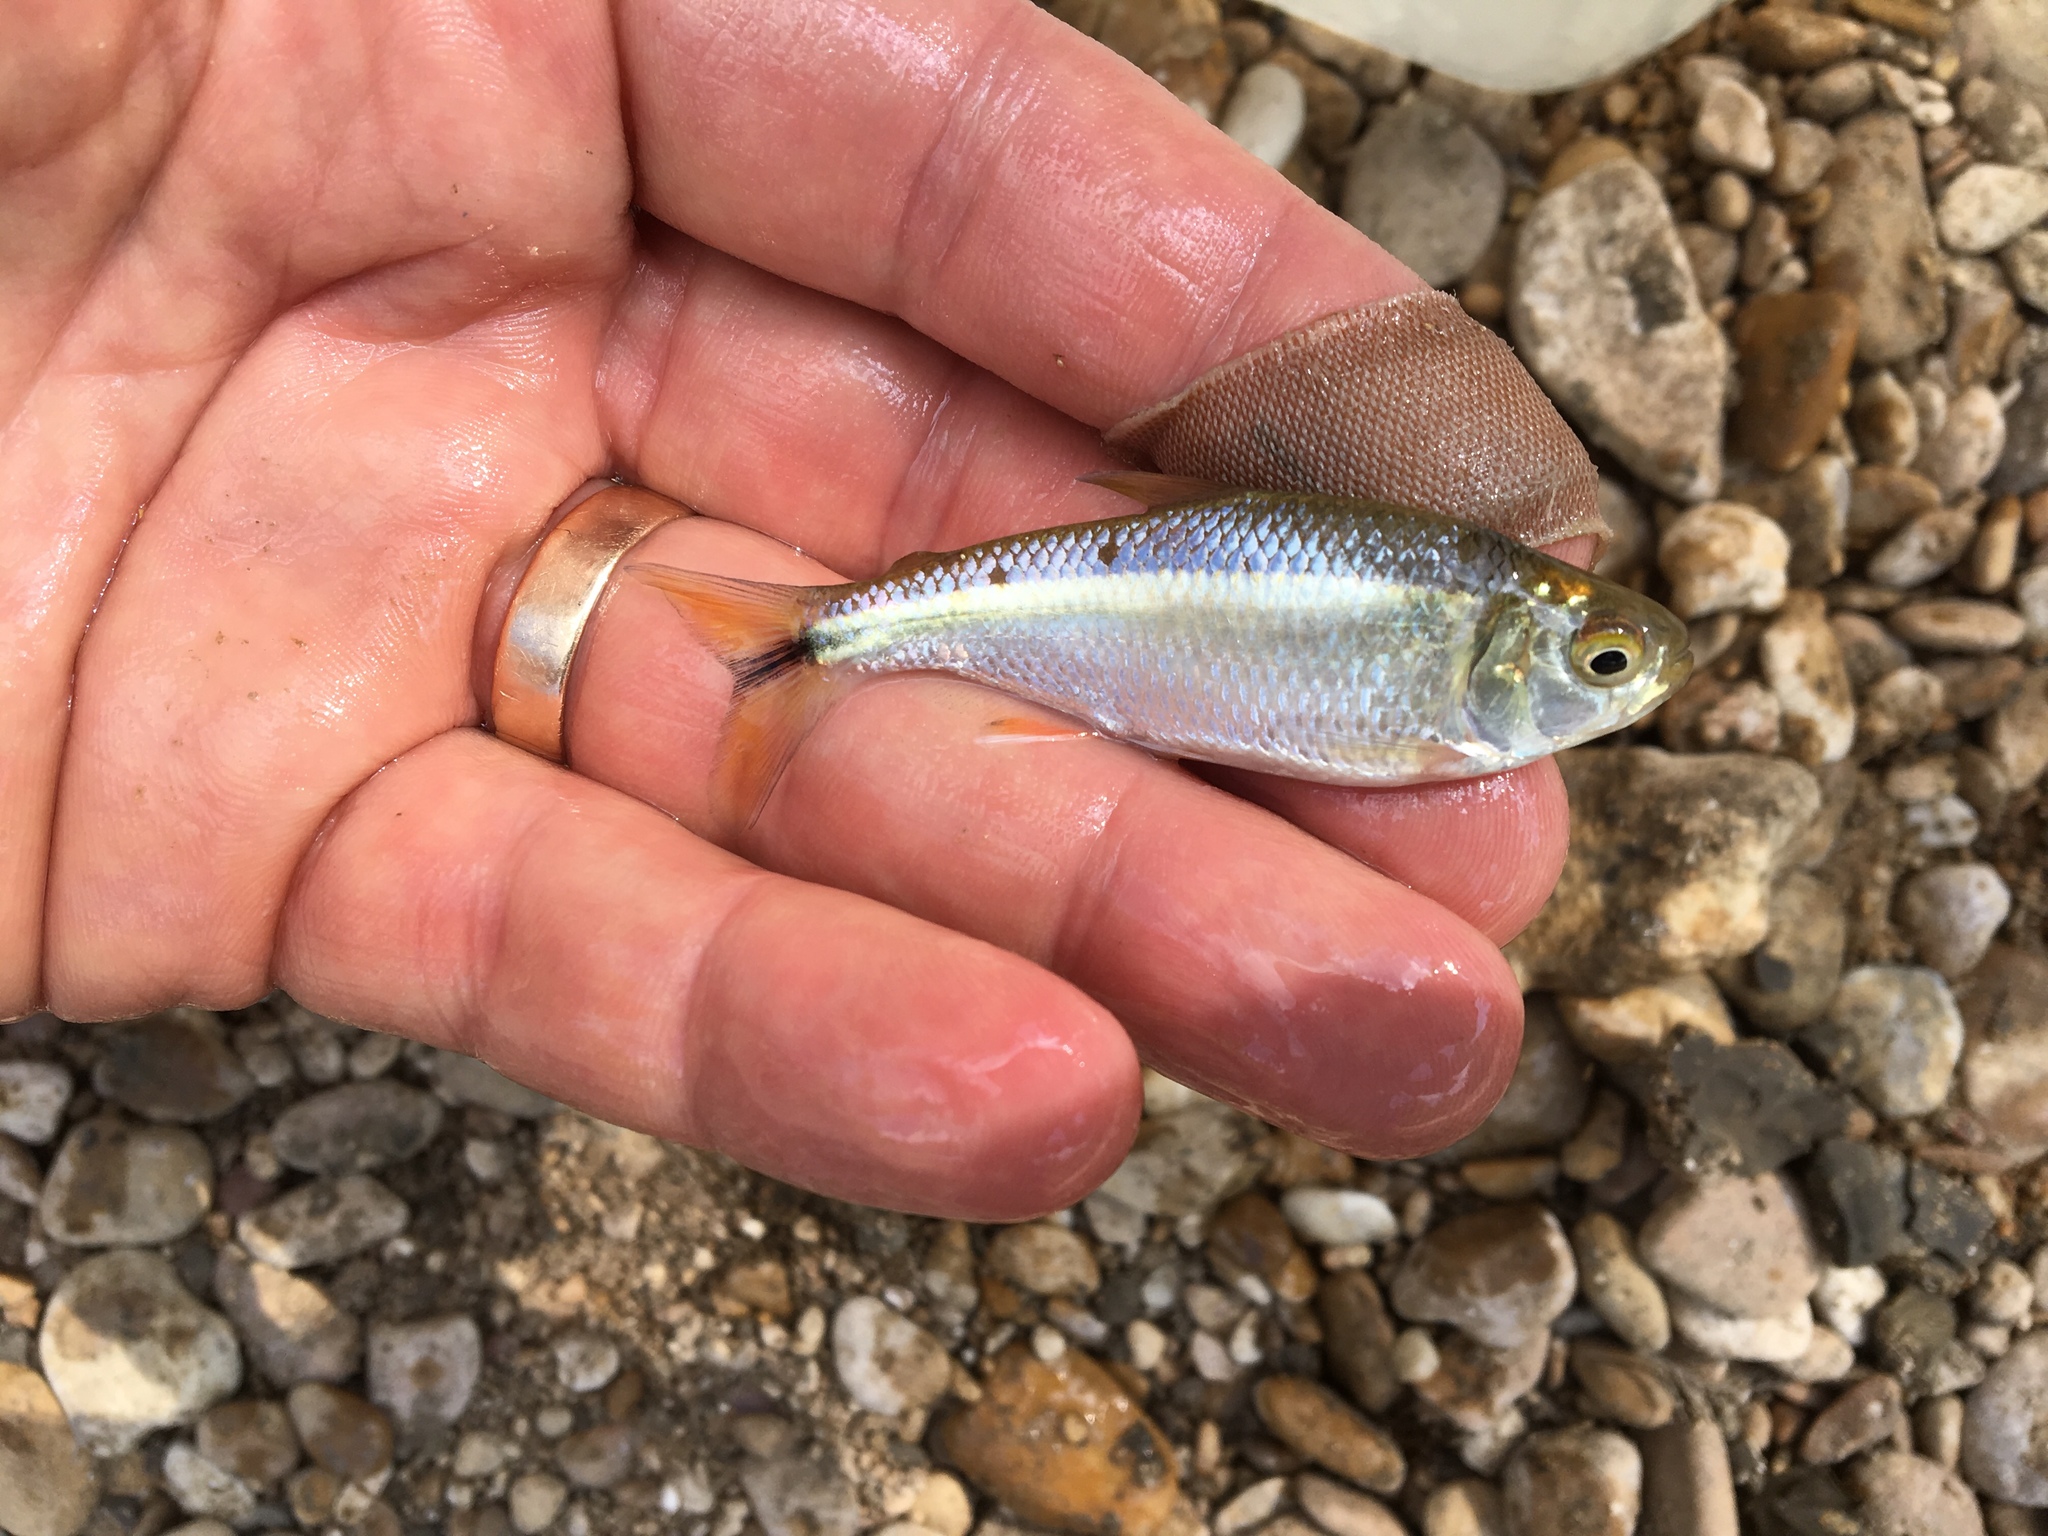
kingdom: Animalia
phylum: Chordata
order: Characiformes
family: Characidae
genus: Astyanax
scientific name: Astyanax mexicanus
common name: Mexican tetra
